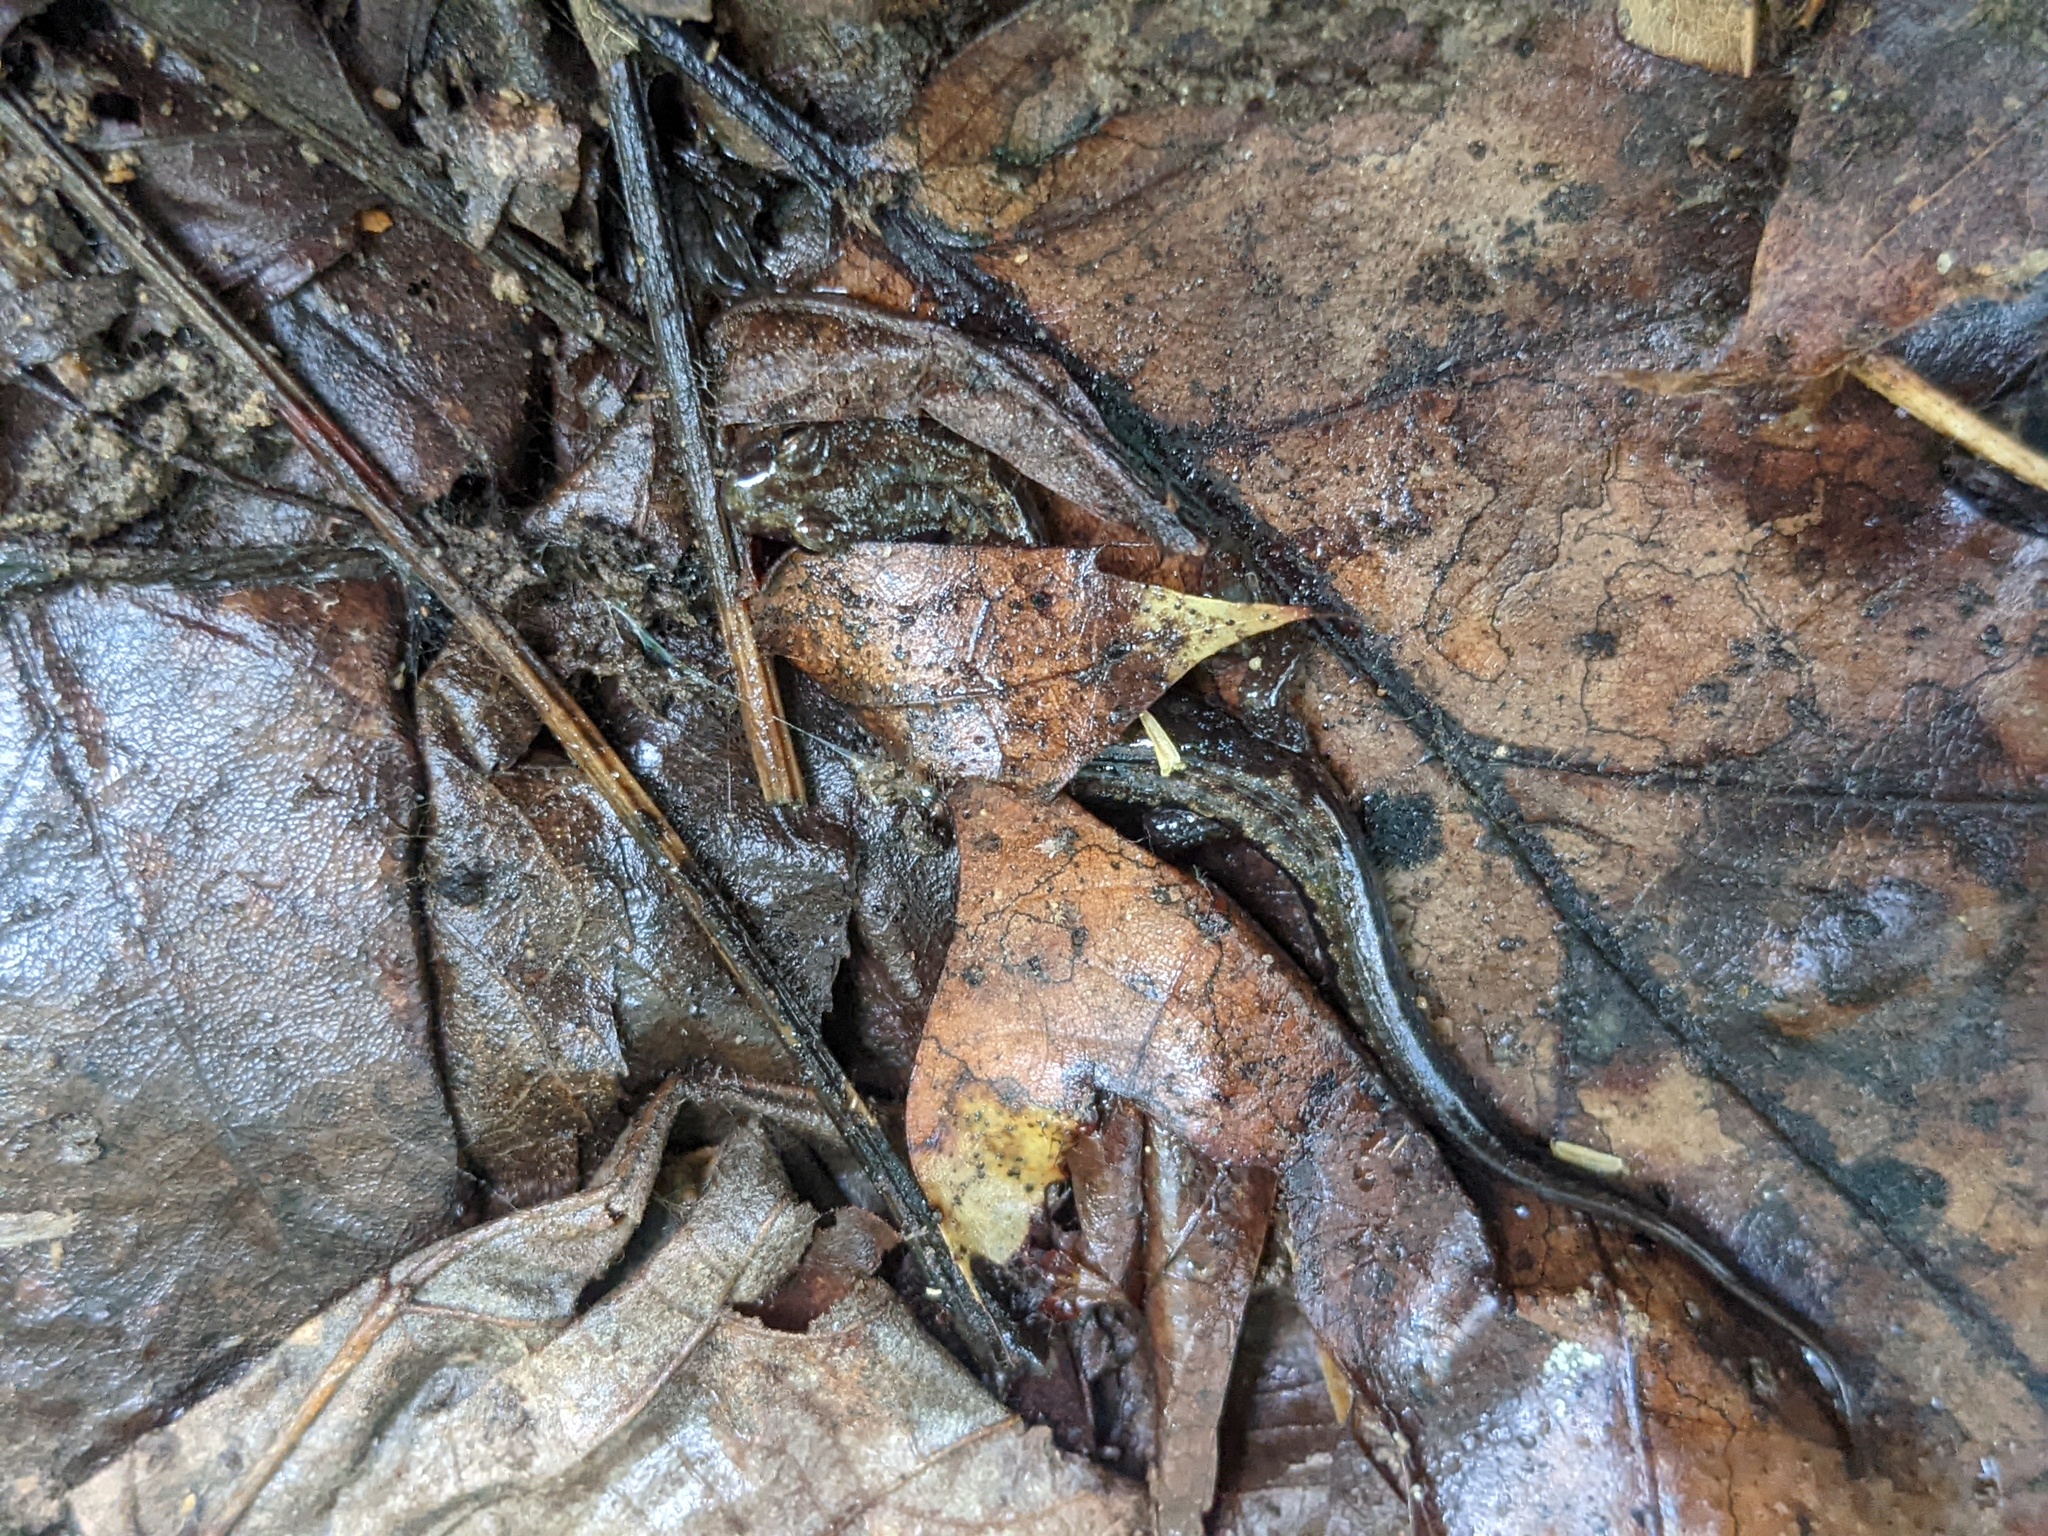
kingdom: Animalia
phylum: Chordata
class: Amphibia
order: Caudata
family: Plethodontidae
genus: Desmognathus
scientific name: Desmognathus ochrophaeus
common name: Allegheny mountain dusky salamander
